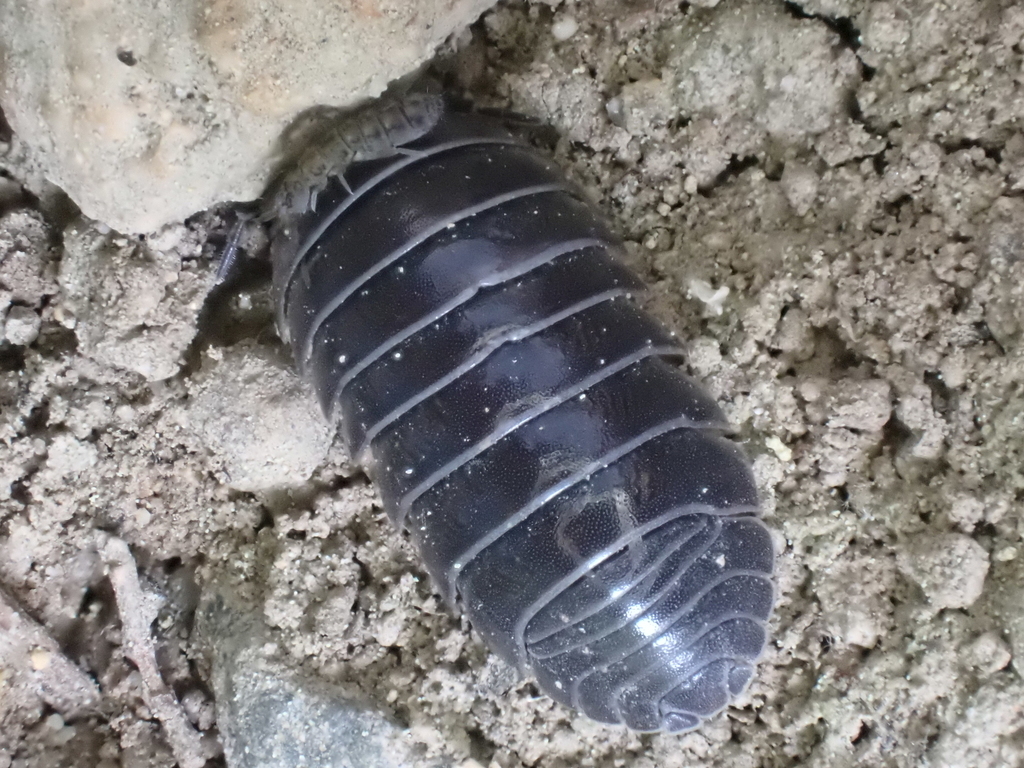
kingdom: Animalia
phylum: Arthropoda
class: Malacostraca
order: Isopoda
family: Armadillidiidae
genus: Armadillidium
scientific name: Armadillidium vulgare
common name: Common pill woodlouse
